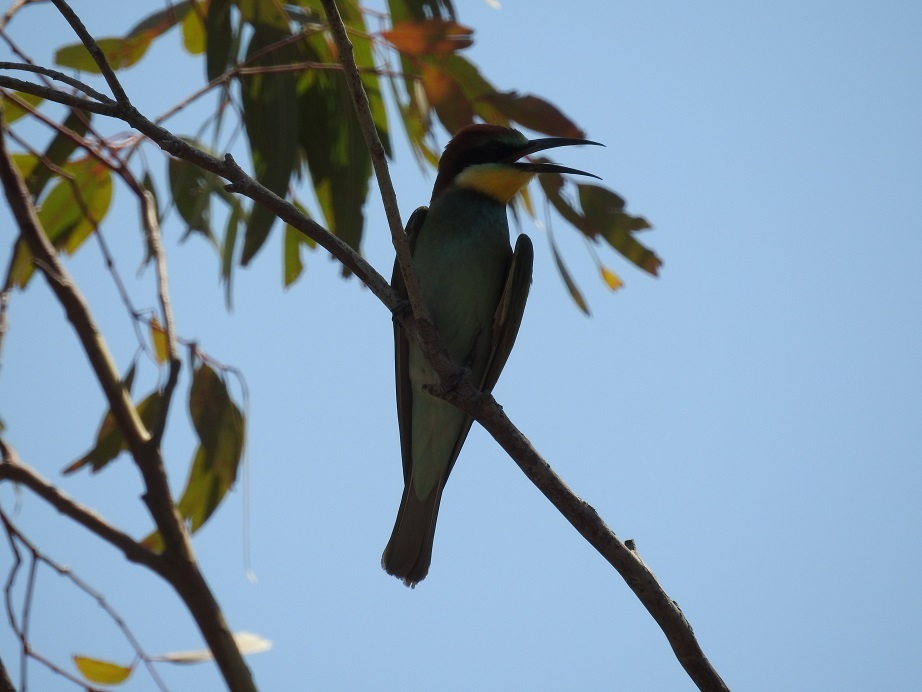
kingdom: Animalia
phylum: Chordata
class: Aves
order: Coraciiformes
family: Meropidae
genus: Merops
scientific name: Merops apiaster
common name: European bee-eater
